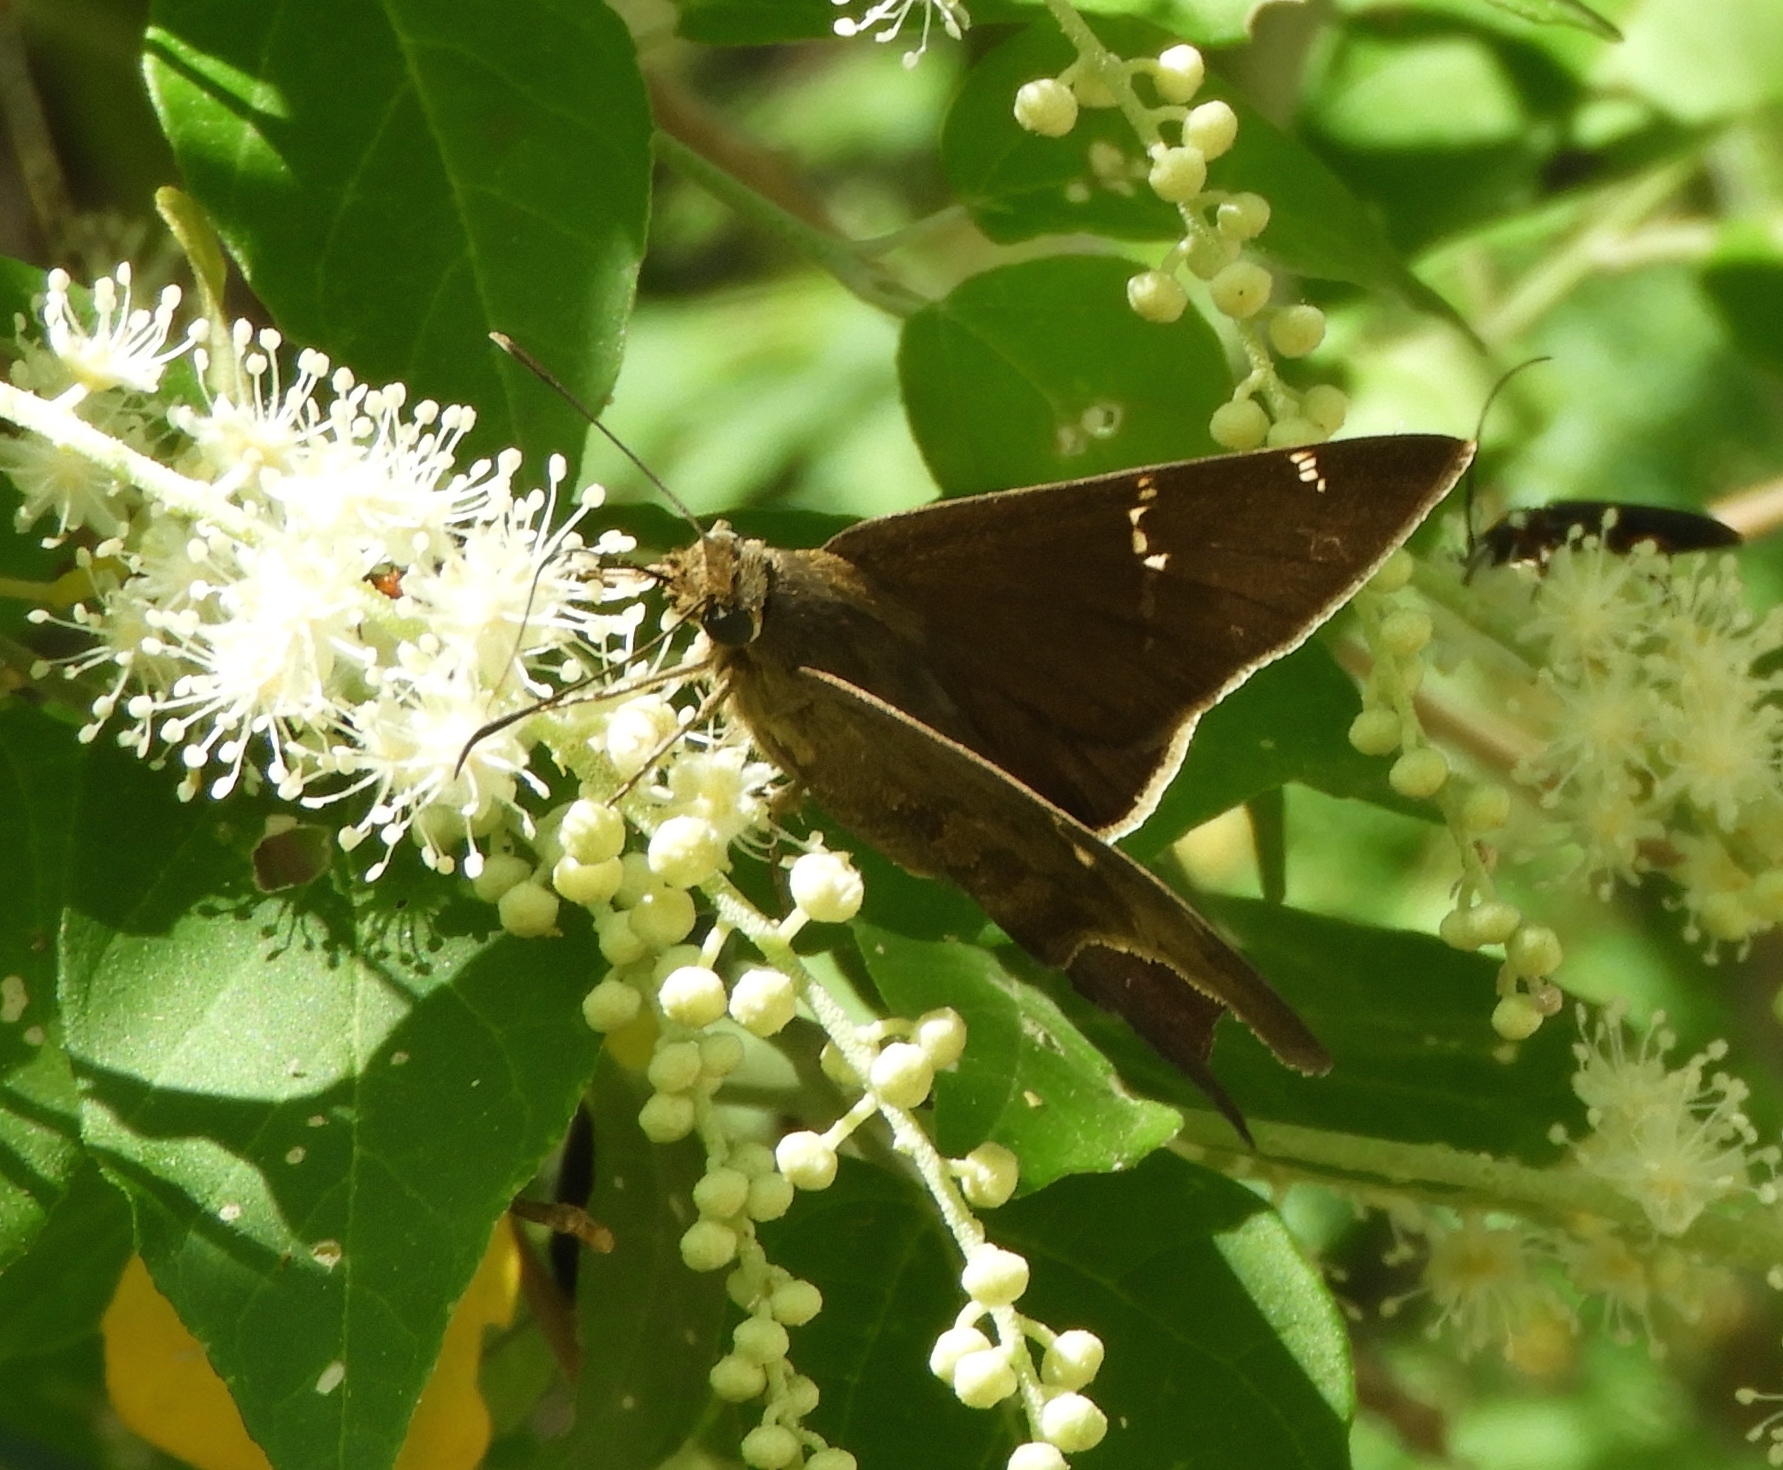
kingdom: Animalia
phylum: Arthropoda
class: Insecta
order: Lepidoptera
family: Hesperiidae
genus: Urbanus
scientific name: Urbanus procne
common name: Brown longtail
